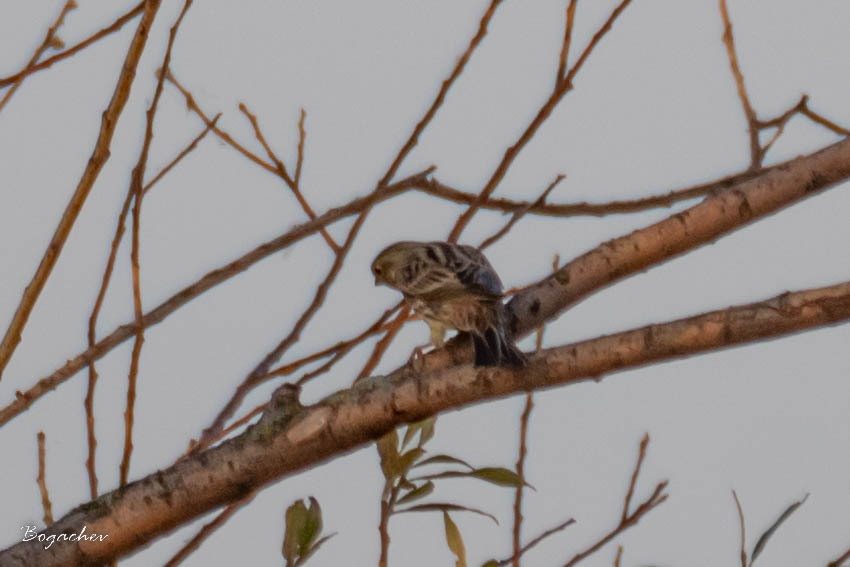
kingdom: Animalia
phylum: Chordata
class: Aves
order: Passeriformes
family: Emberizidae
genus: Emberiza
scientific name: Emberiza citrinella
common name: Yellowhammer
